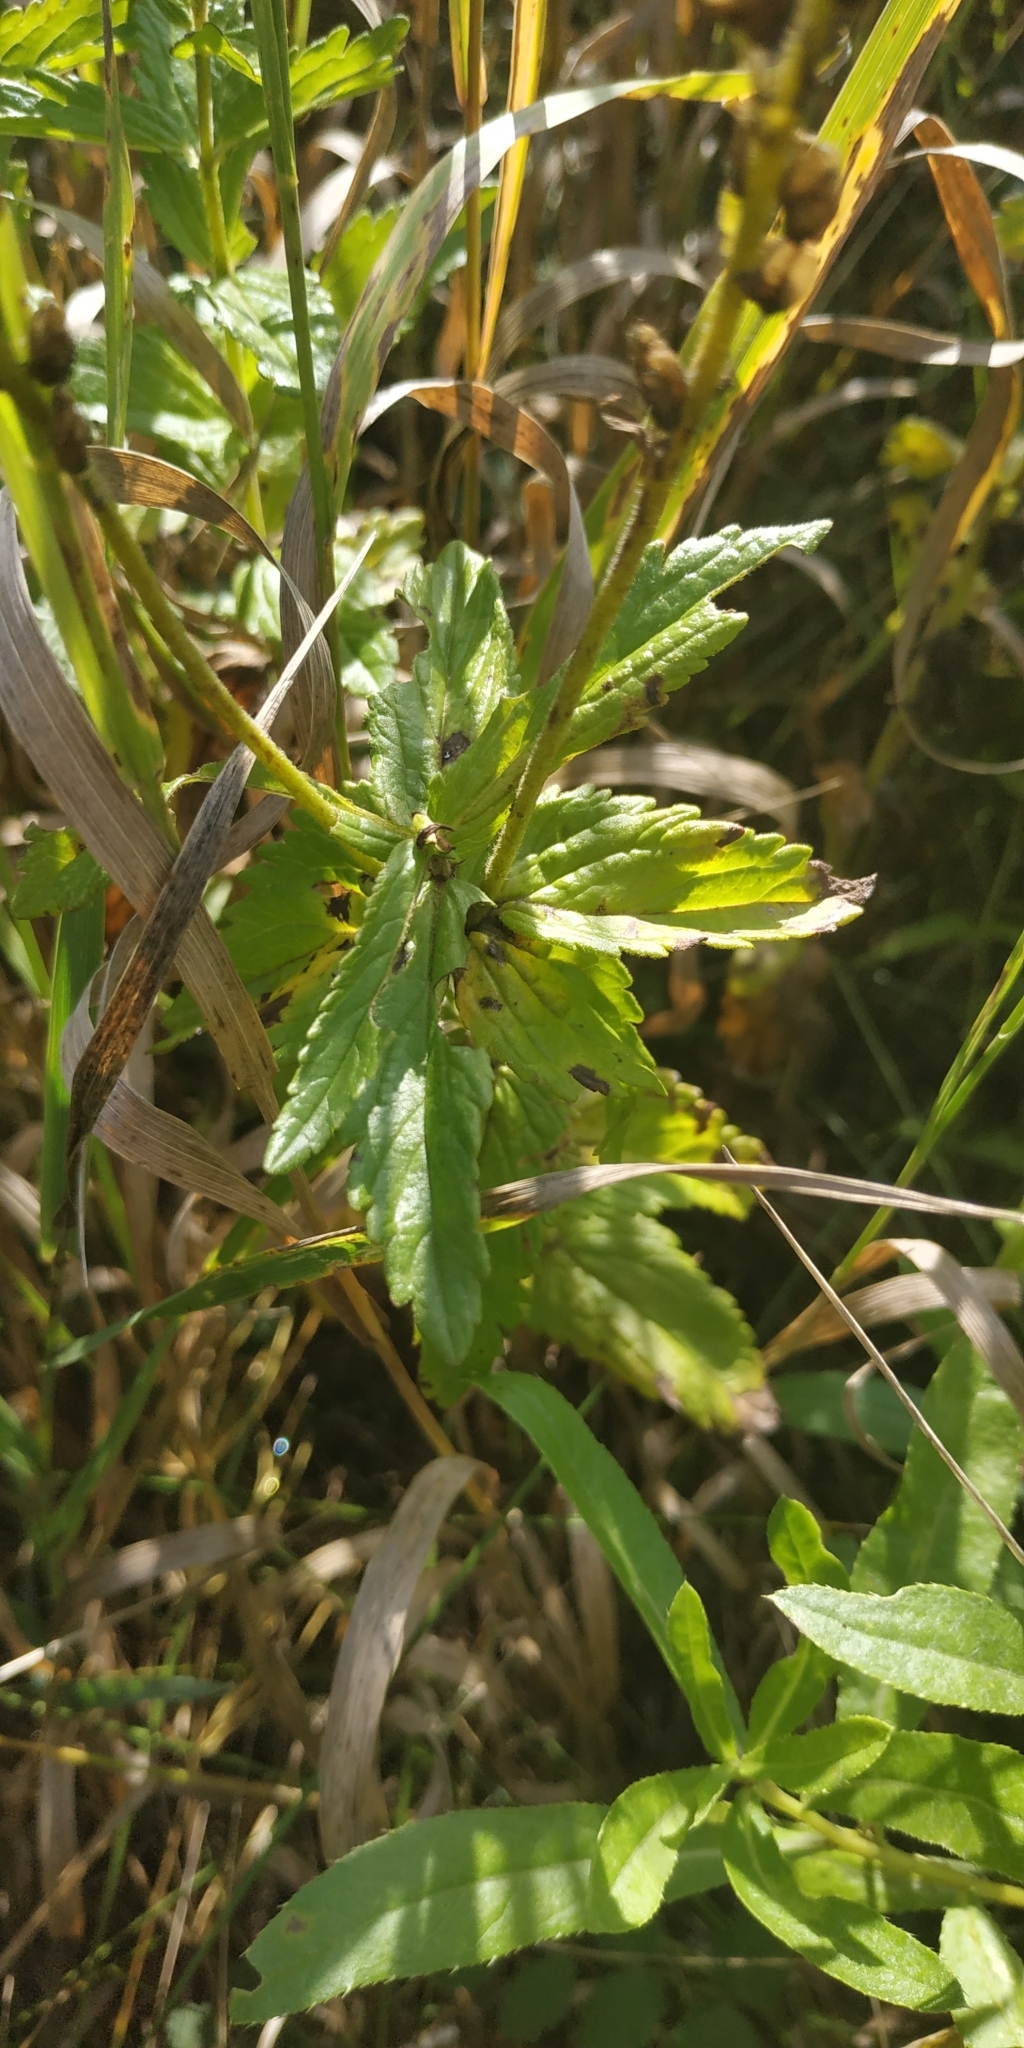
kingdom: Plantae
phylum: Tracheophyta
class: Magnoliopsida
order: Lamiales
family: Plantaginaceae
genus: Veronica
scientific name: Veronica teucrium
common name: Large speedwell
